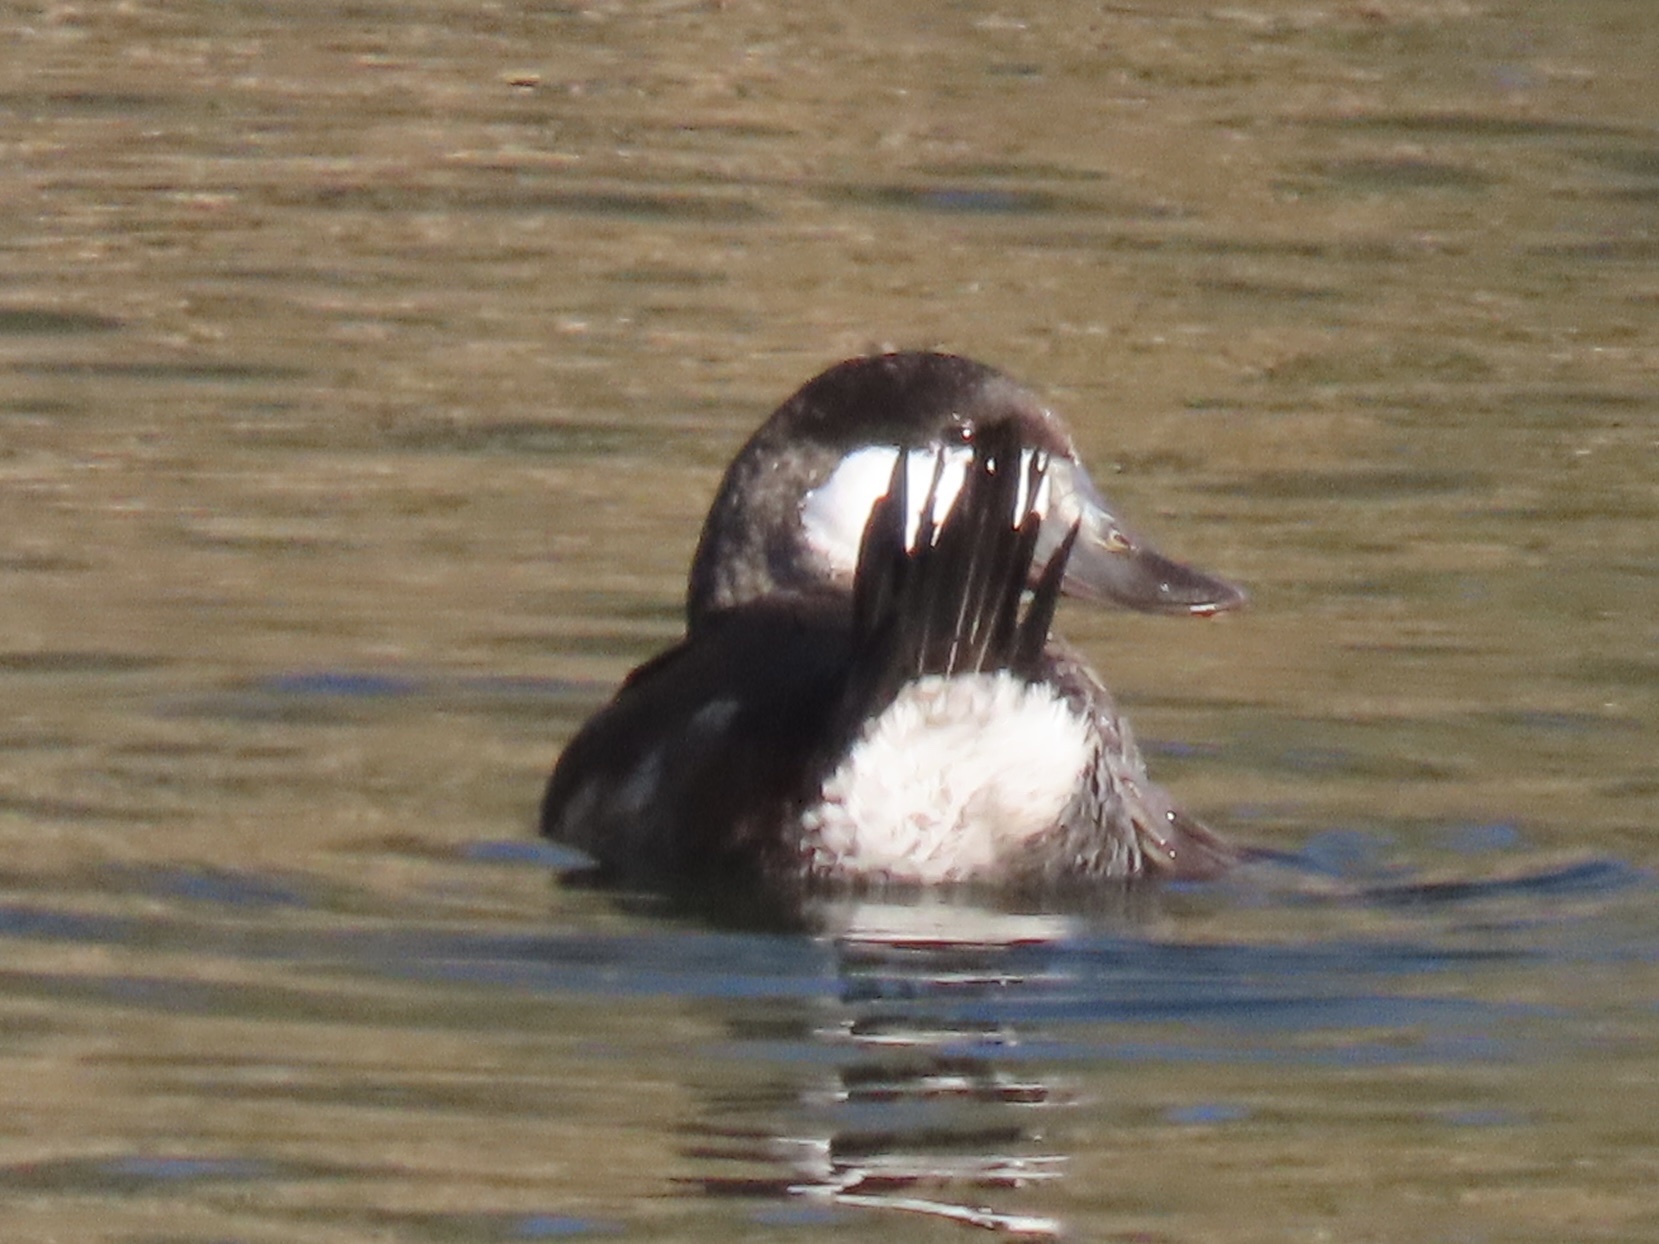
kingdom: Animalia
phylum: Chordata
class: Aves
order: Anseriformes
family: Anatidae
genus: Oxyura
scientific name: Oxyura jamaicensis
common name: Ruddy duck
